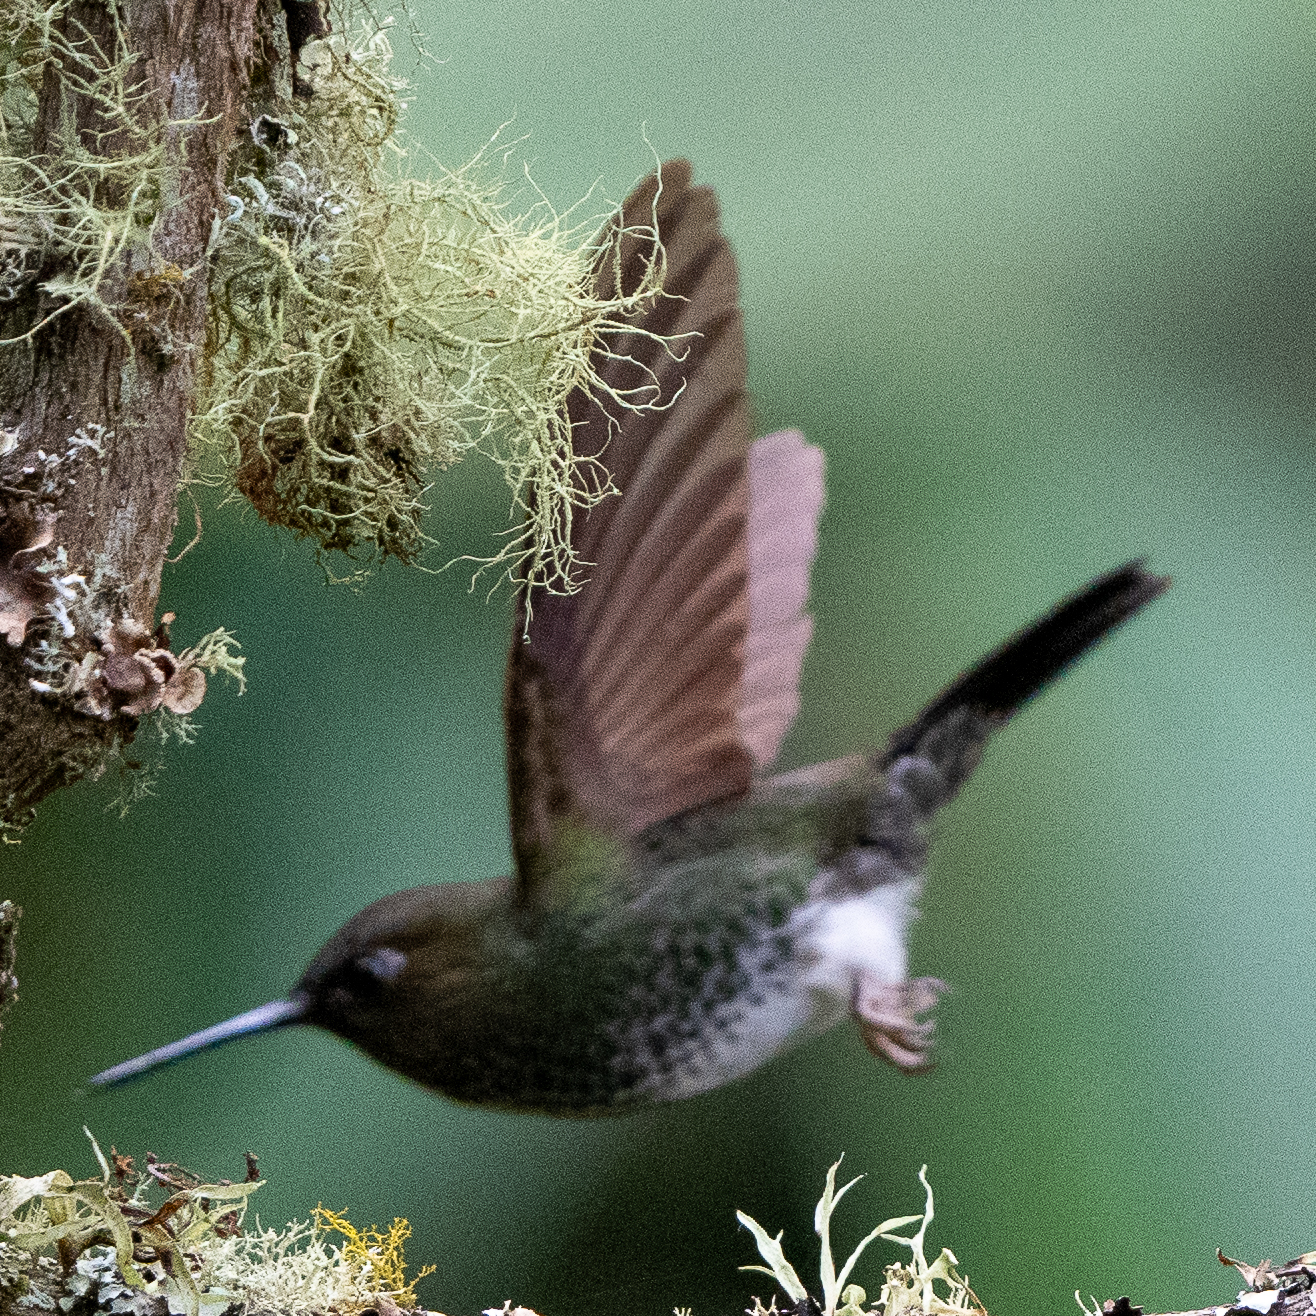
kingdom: Animalia
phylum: Chordata
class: Aves
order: Apodiformes
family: Trochilidae
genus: Haplophaedia
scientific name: Haplophaedia aureliae
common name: Greenish puffleg
